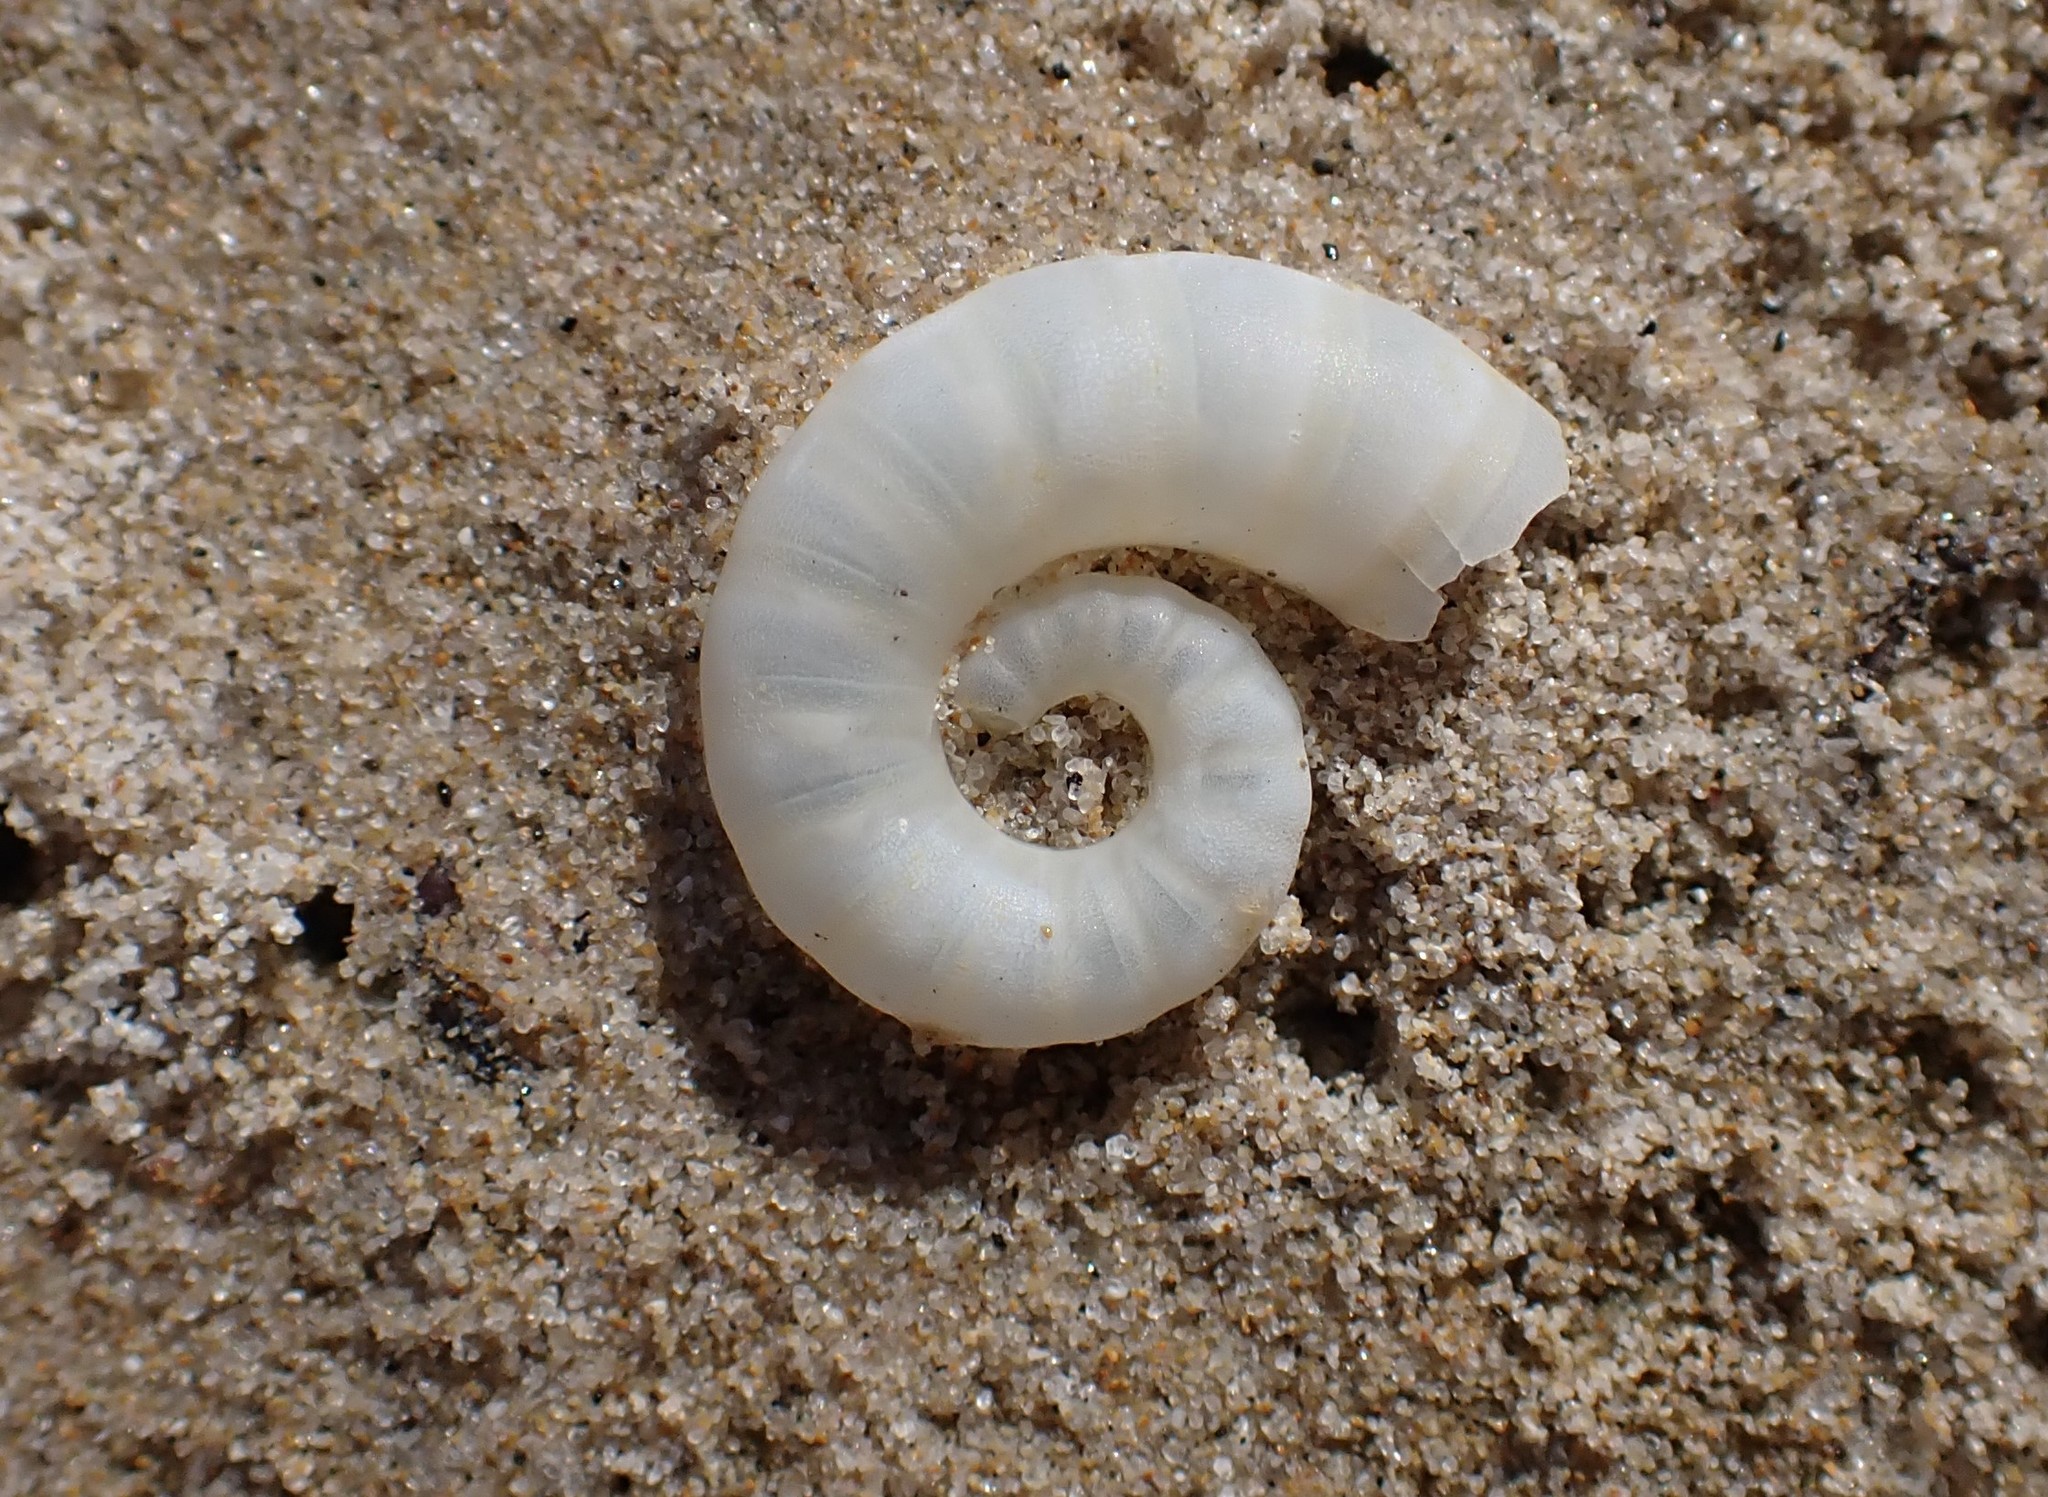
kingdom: Animalia
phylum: Mollusca
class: Cephalopoda
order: Spirulida
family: Spirulidae
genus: Spirula
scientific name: Spirula spirula
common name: Ram's horn squid
